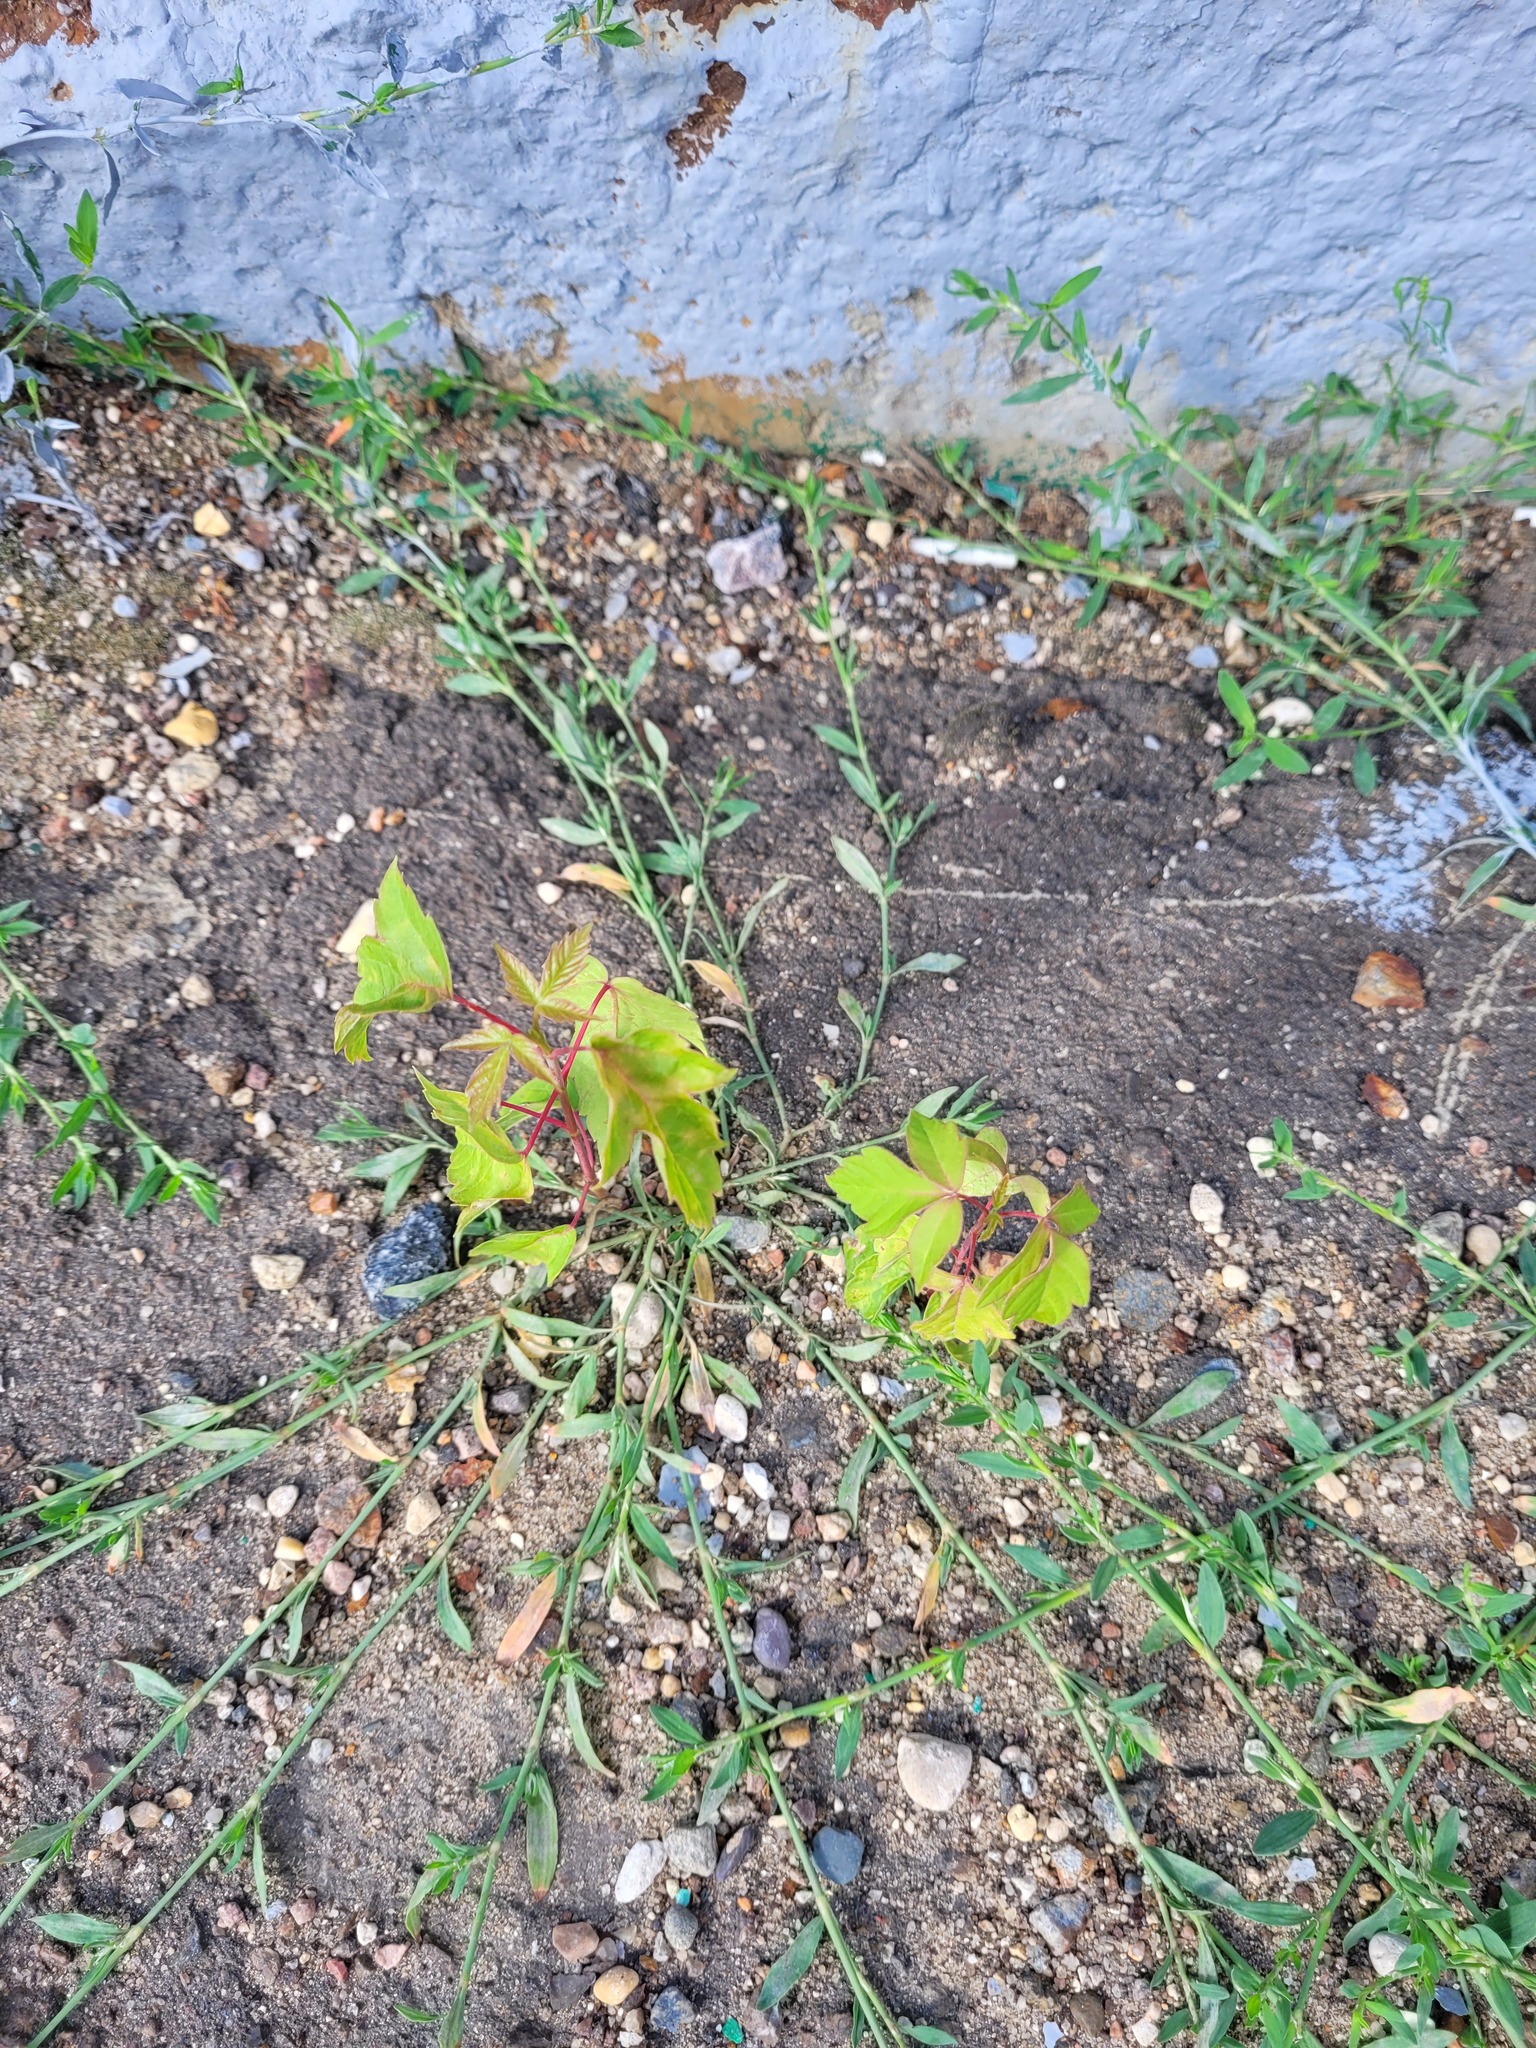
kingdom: Plantae
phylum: Tracheophyta
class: Magnoliopsida
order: Sapindales
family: Sapindaceae
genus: Acer
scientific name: Acer negundo
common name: Ashleaf maple
